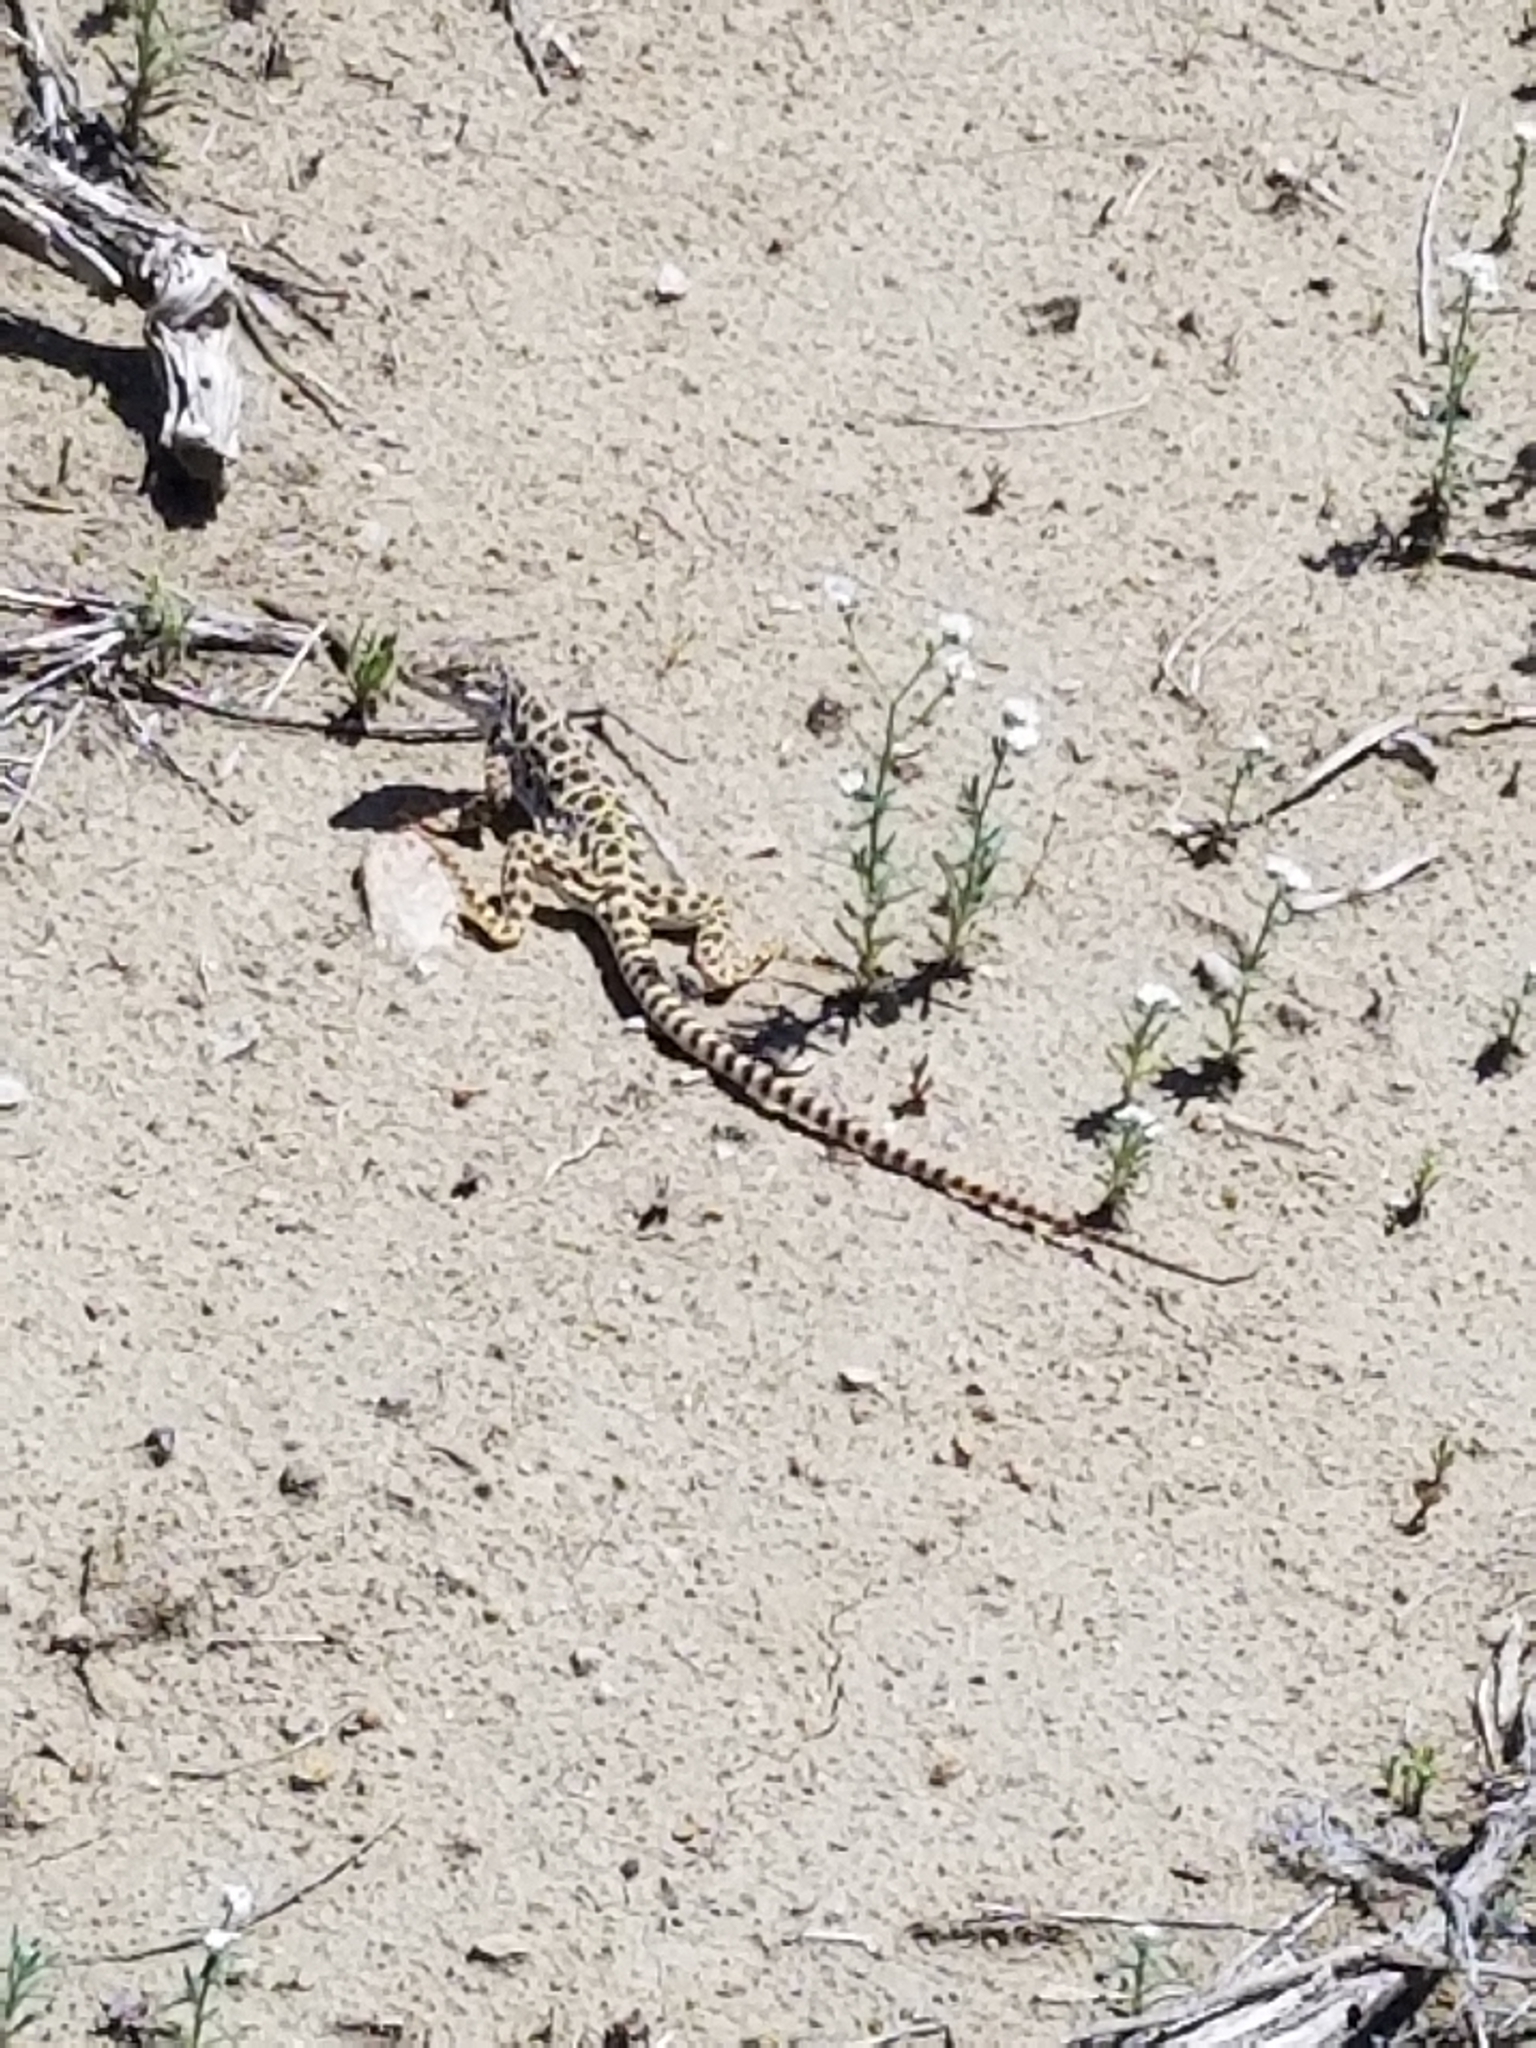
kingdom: Animalia
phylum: Chordata
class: Squamata
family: Crotaphytidae
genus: Gambelia
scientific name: Gambelia wislizenii
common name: Longnose leopard lizard
